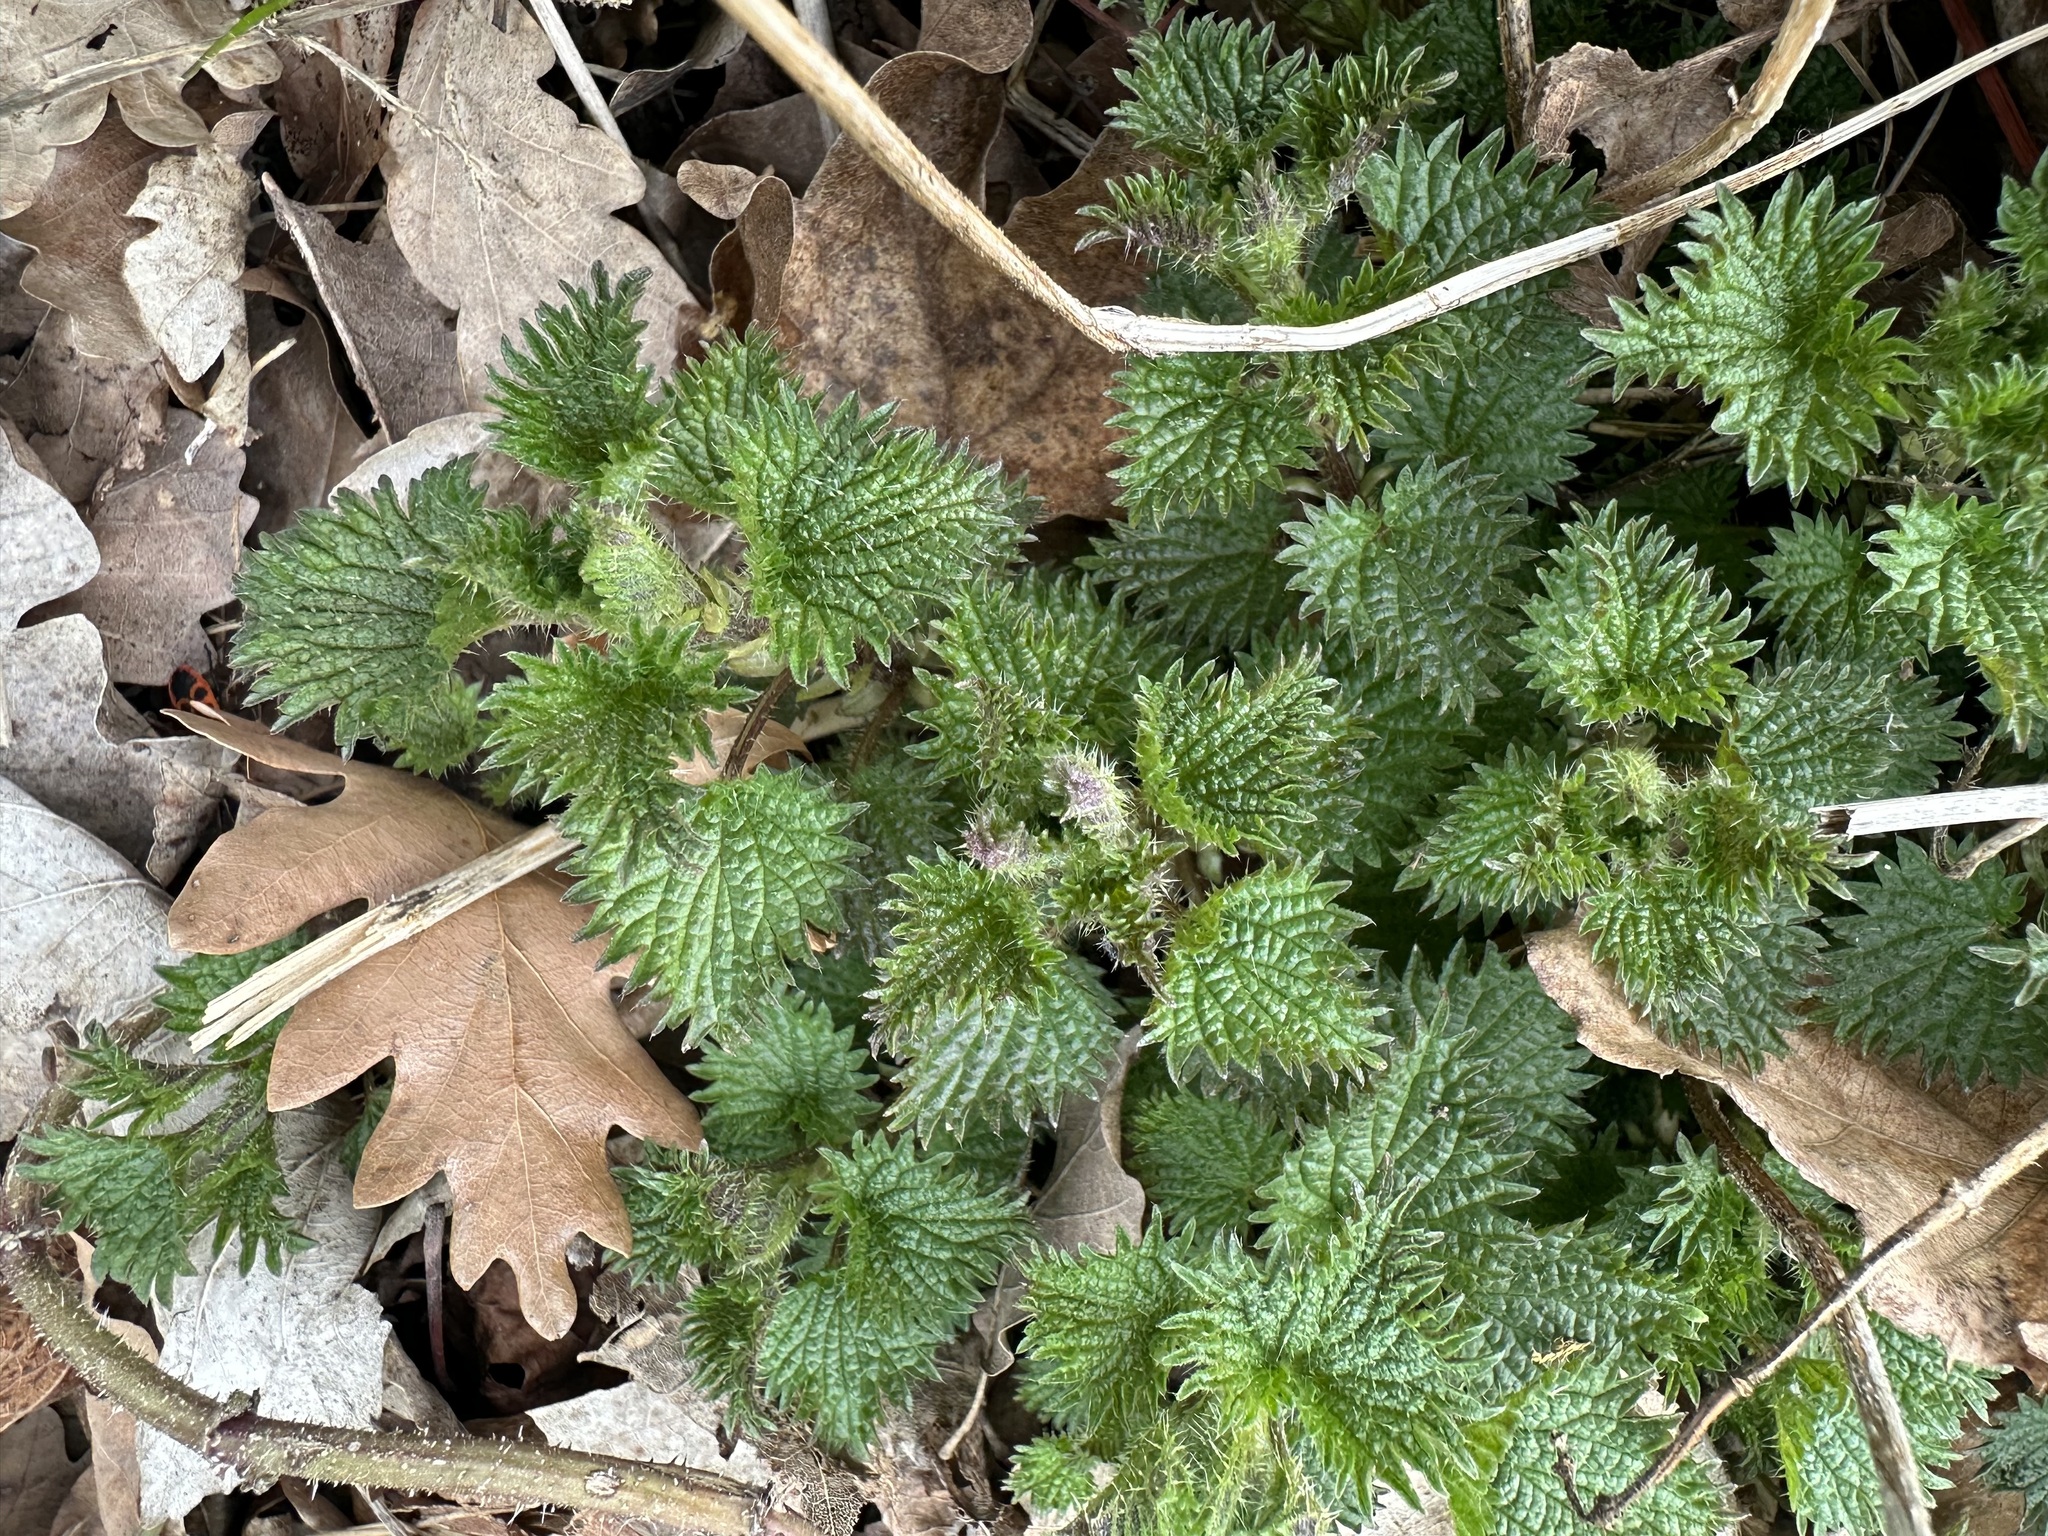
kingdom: Plantae
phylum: Tracheophyta
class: Magnoliopsida
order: Rosales
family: Urticaceae
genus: Urtica
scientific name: Urtica dioica
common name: Common nettle
